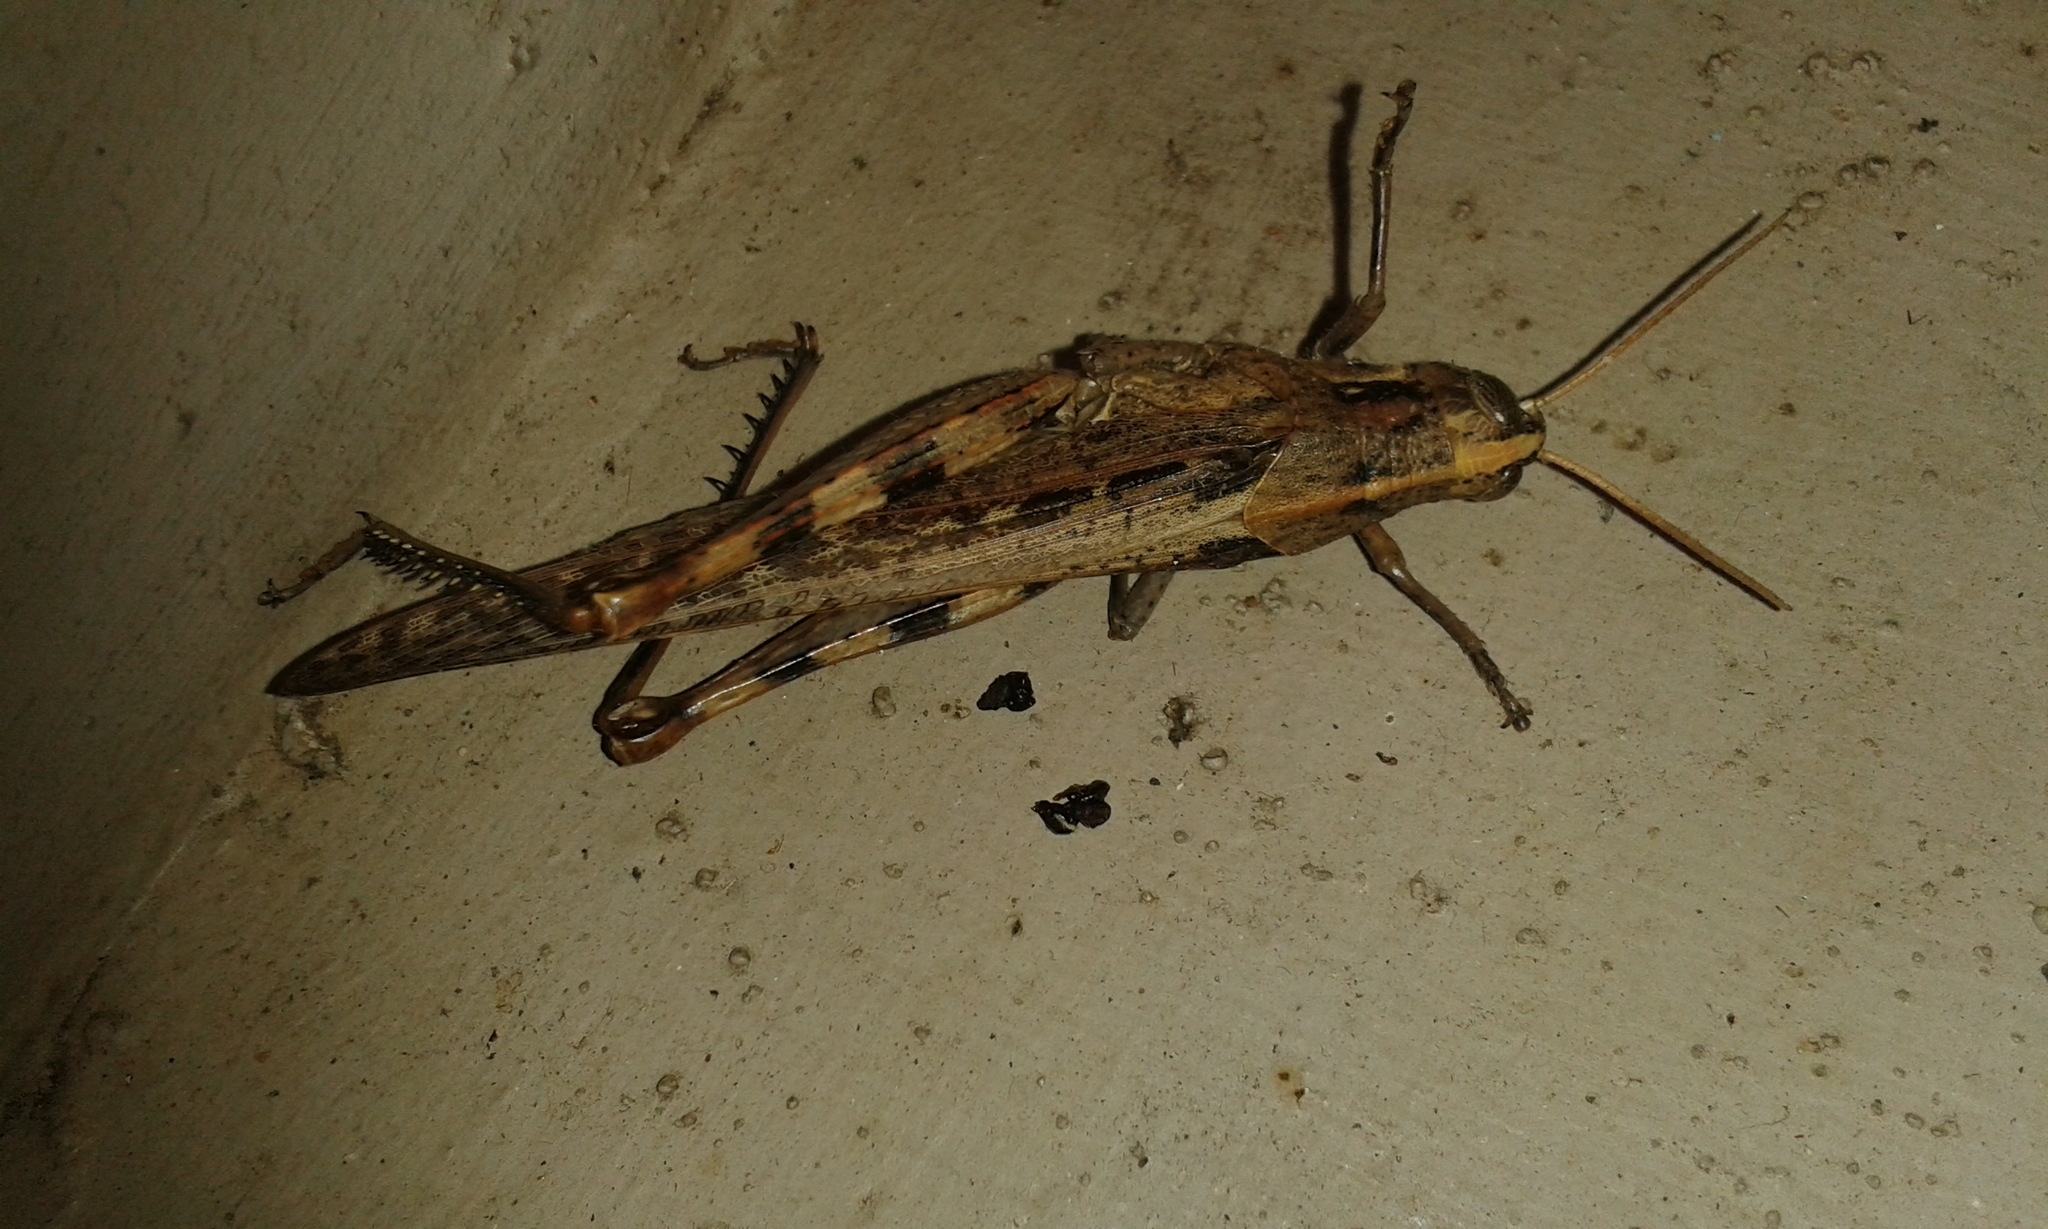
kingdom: Animalia
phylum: Arthropoda
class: Insecta
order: Orthoptera
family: Acrididae
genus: Schistocerca
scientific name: Schistocerca nitens
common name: Vagrant grasshopper
